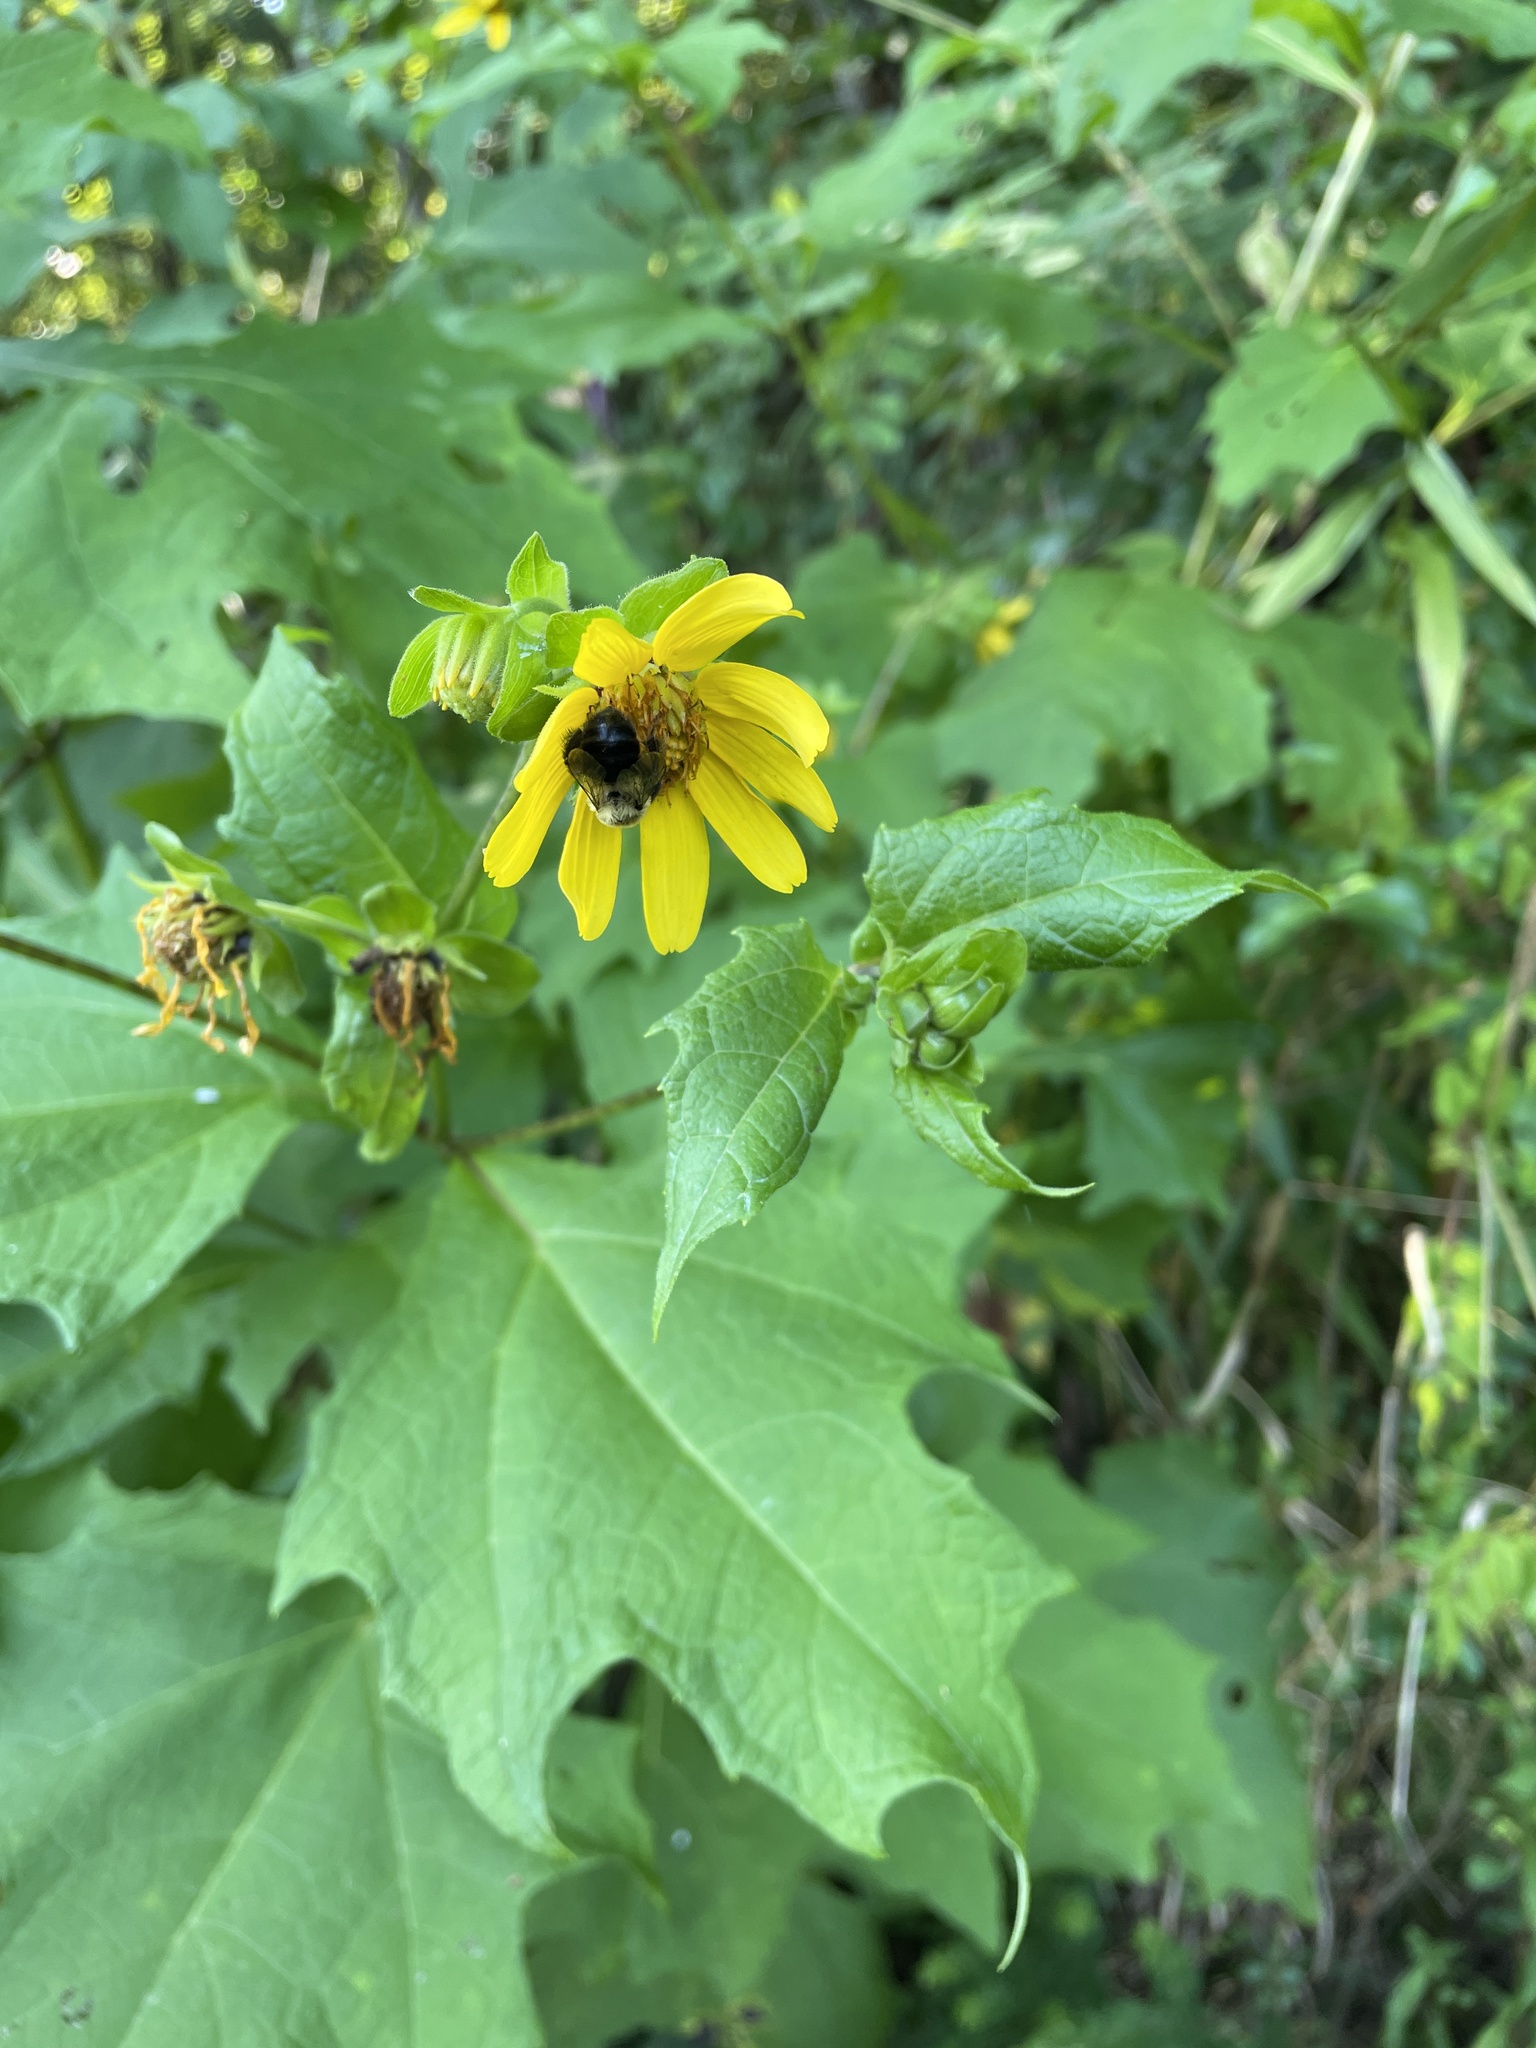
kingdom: Plantae
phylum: Tracheophyta
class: Magnoliopsida
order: Asterales
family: Asteraceae
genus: Smallanthus
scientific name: Smallanthus uvedalia
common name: Bear's-foot
